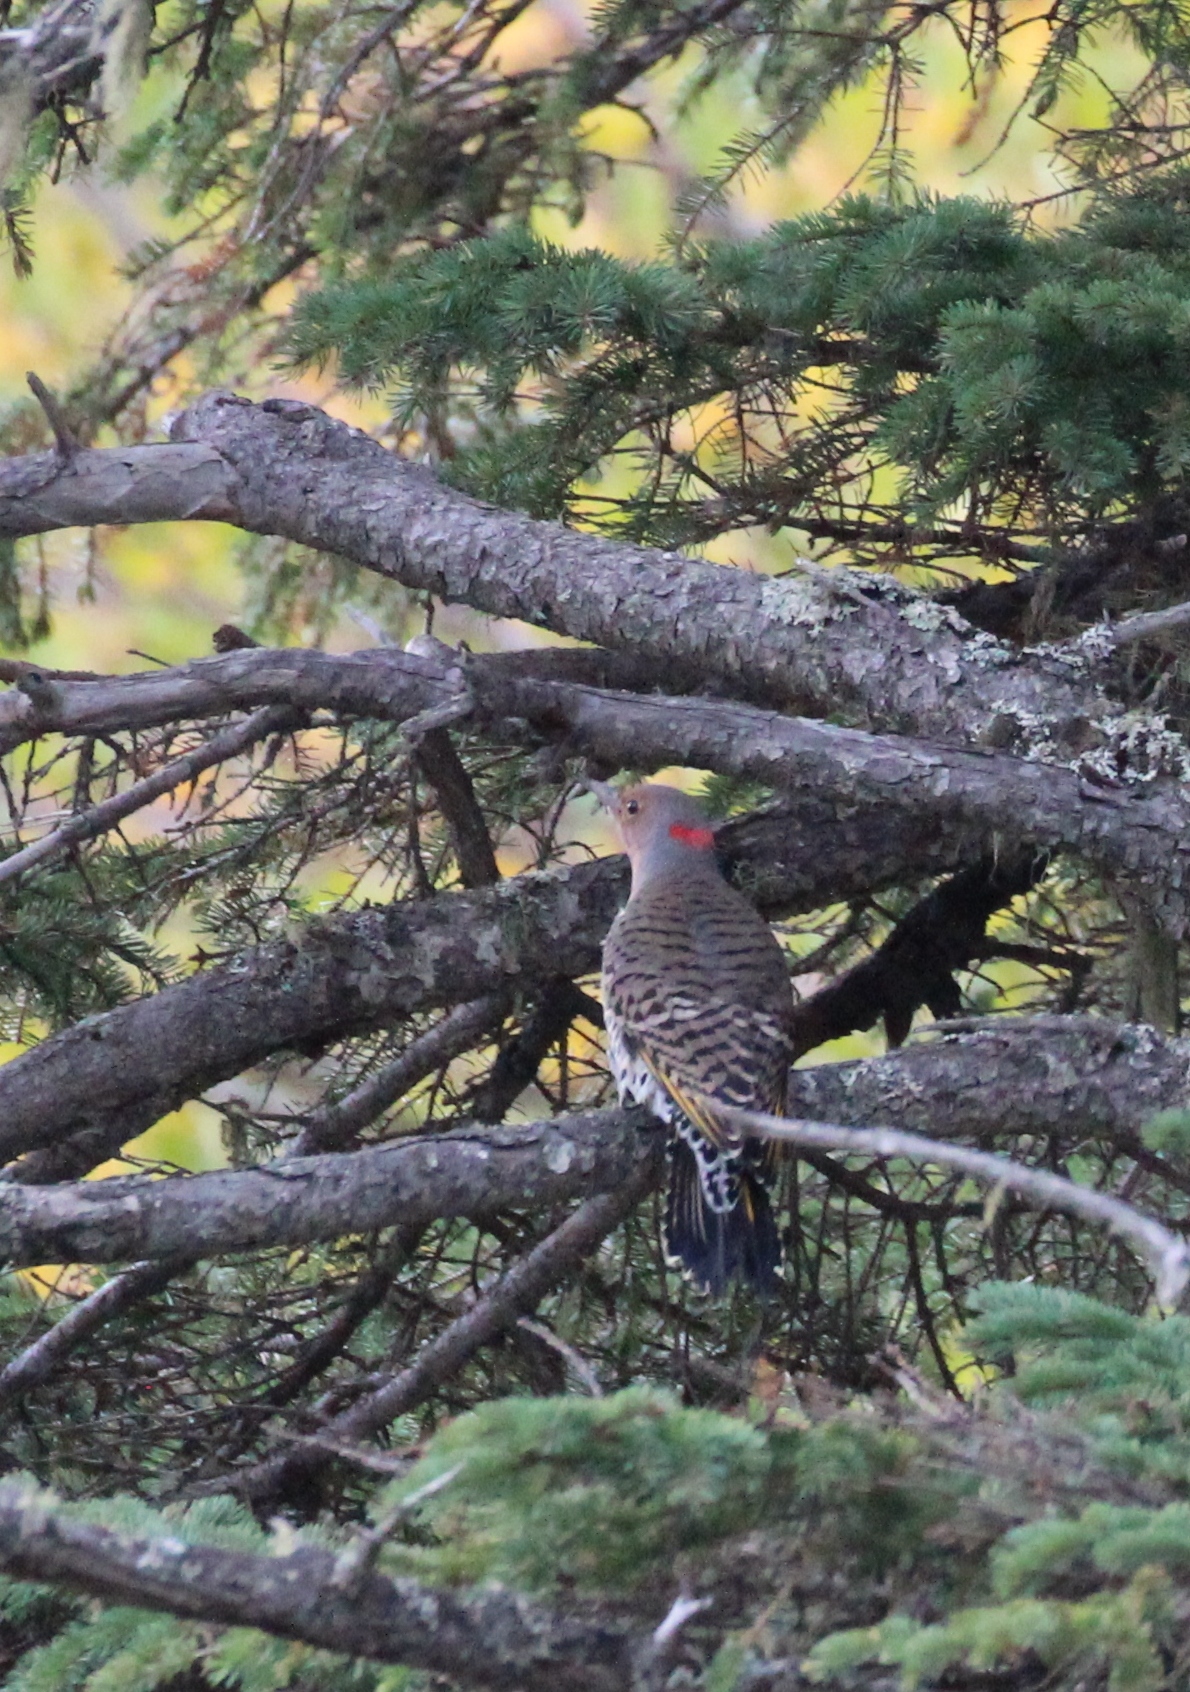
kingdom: Animalia
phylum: Chordata
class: Aves
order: Piciformes
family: Picidae
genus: Colaptes
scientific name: Colaptes auratus
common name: Northern flicker
